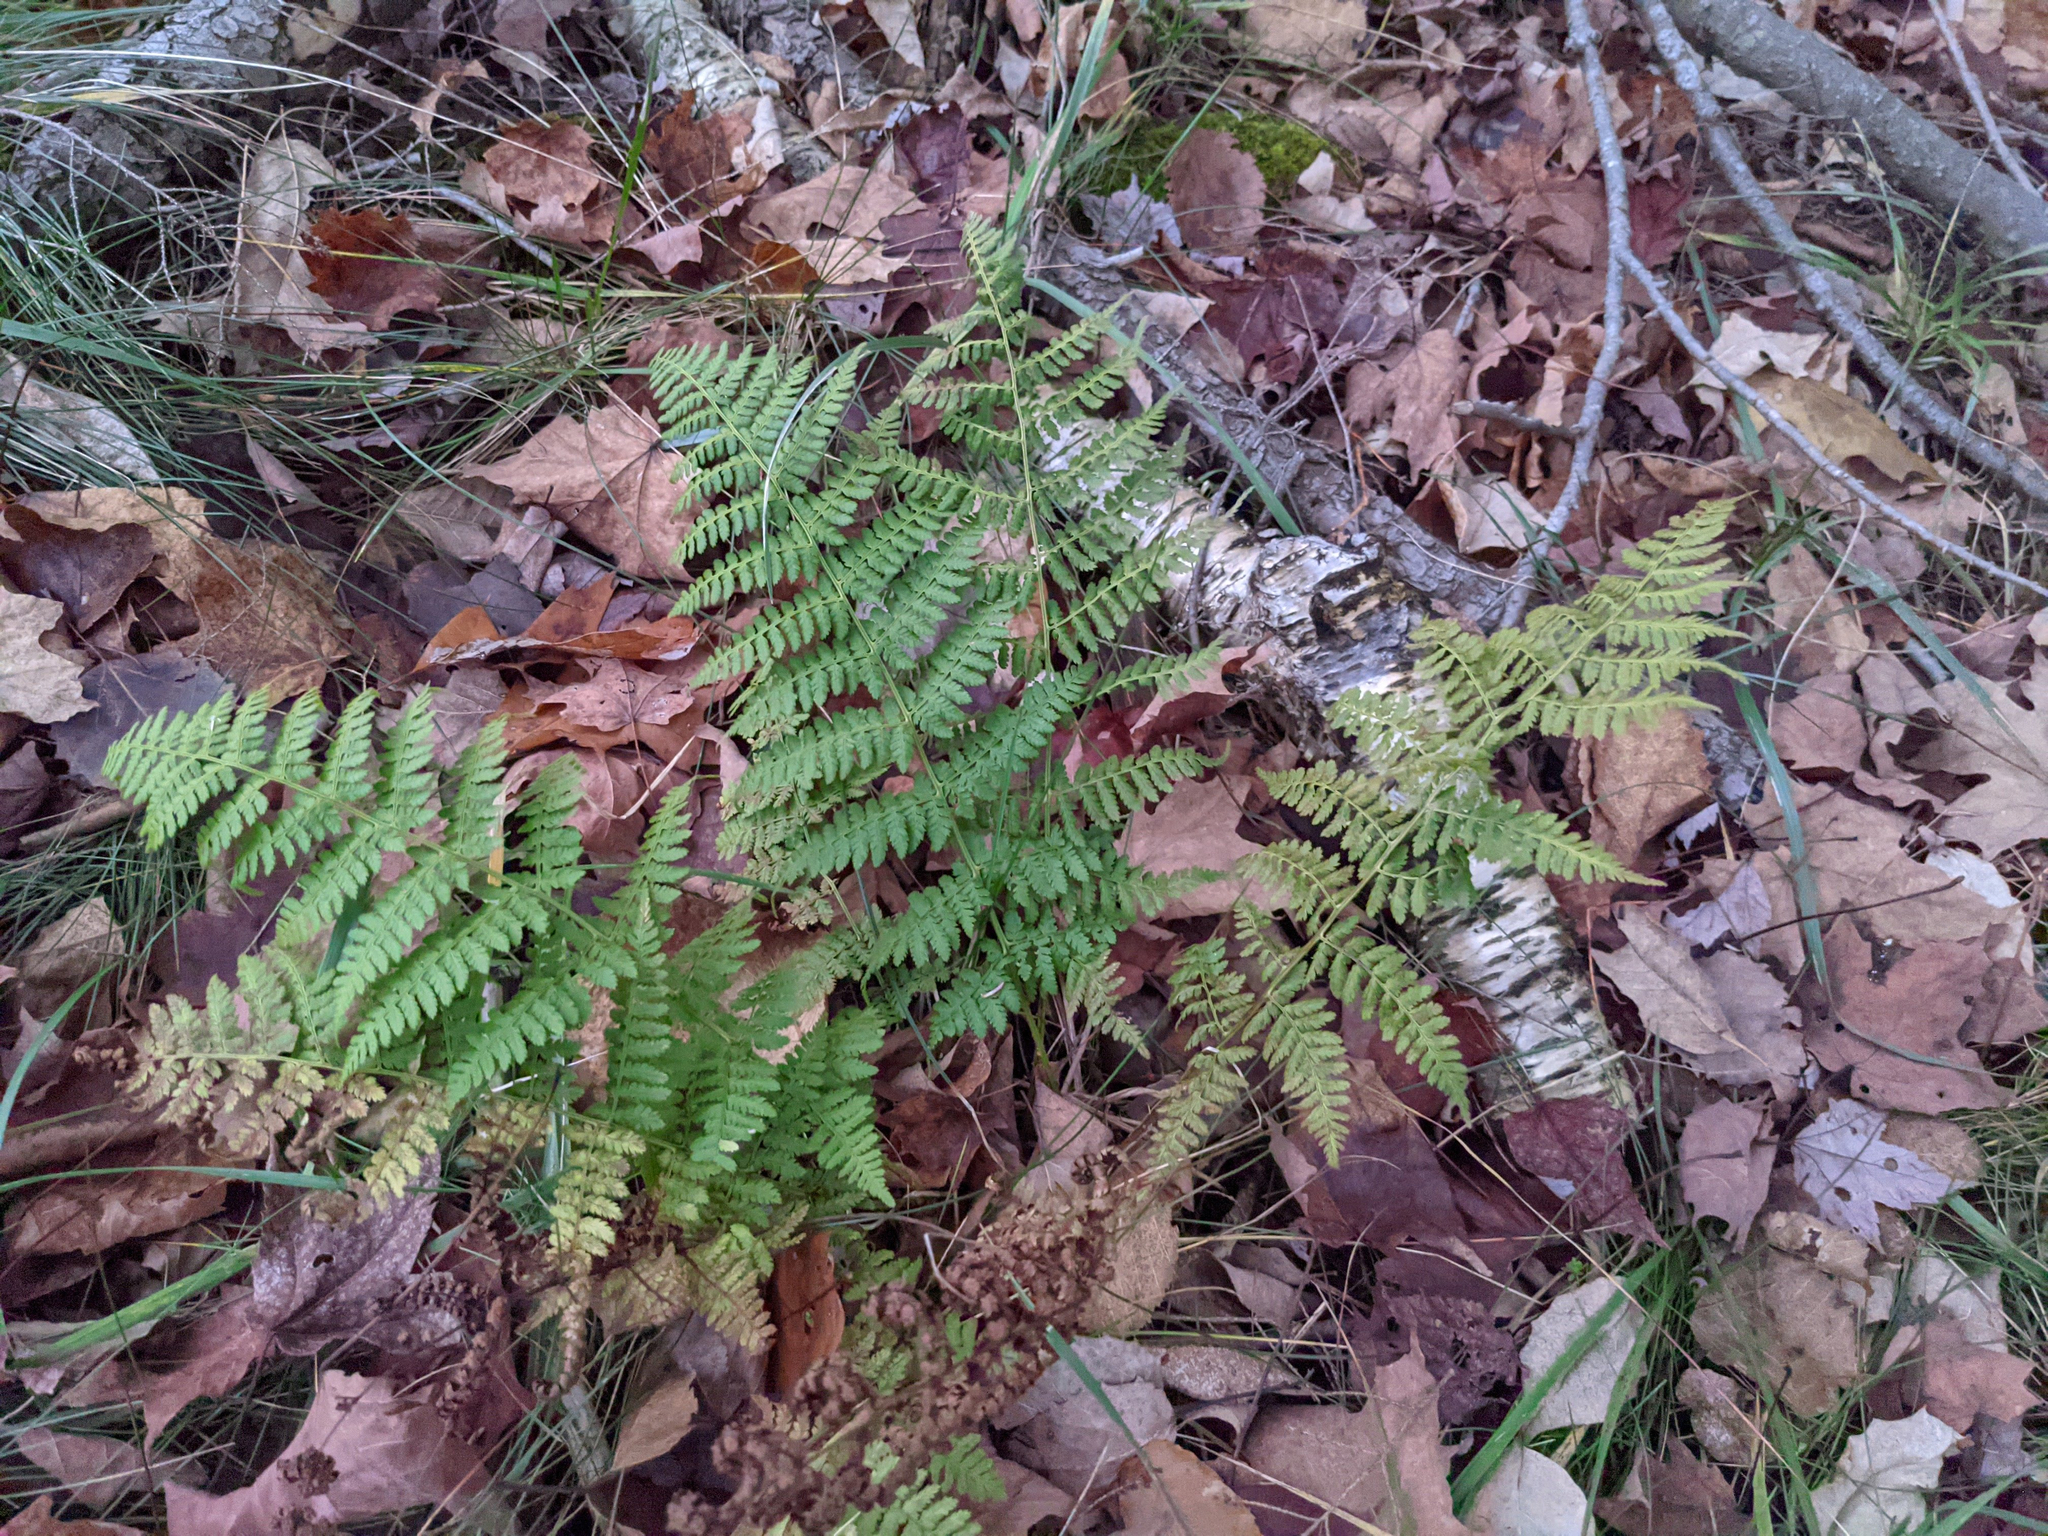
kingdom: Plantae
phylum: Tracheophyta
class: Polypodiopsida
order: Polypodiales
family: Dryopteridaceae
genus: Dryopteris
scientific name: Dryopteris intermedia
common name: Evergreen wood fern
